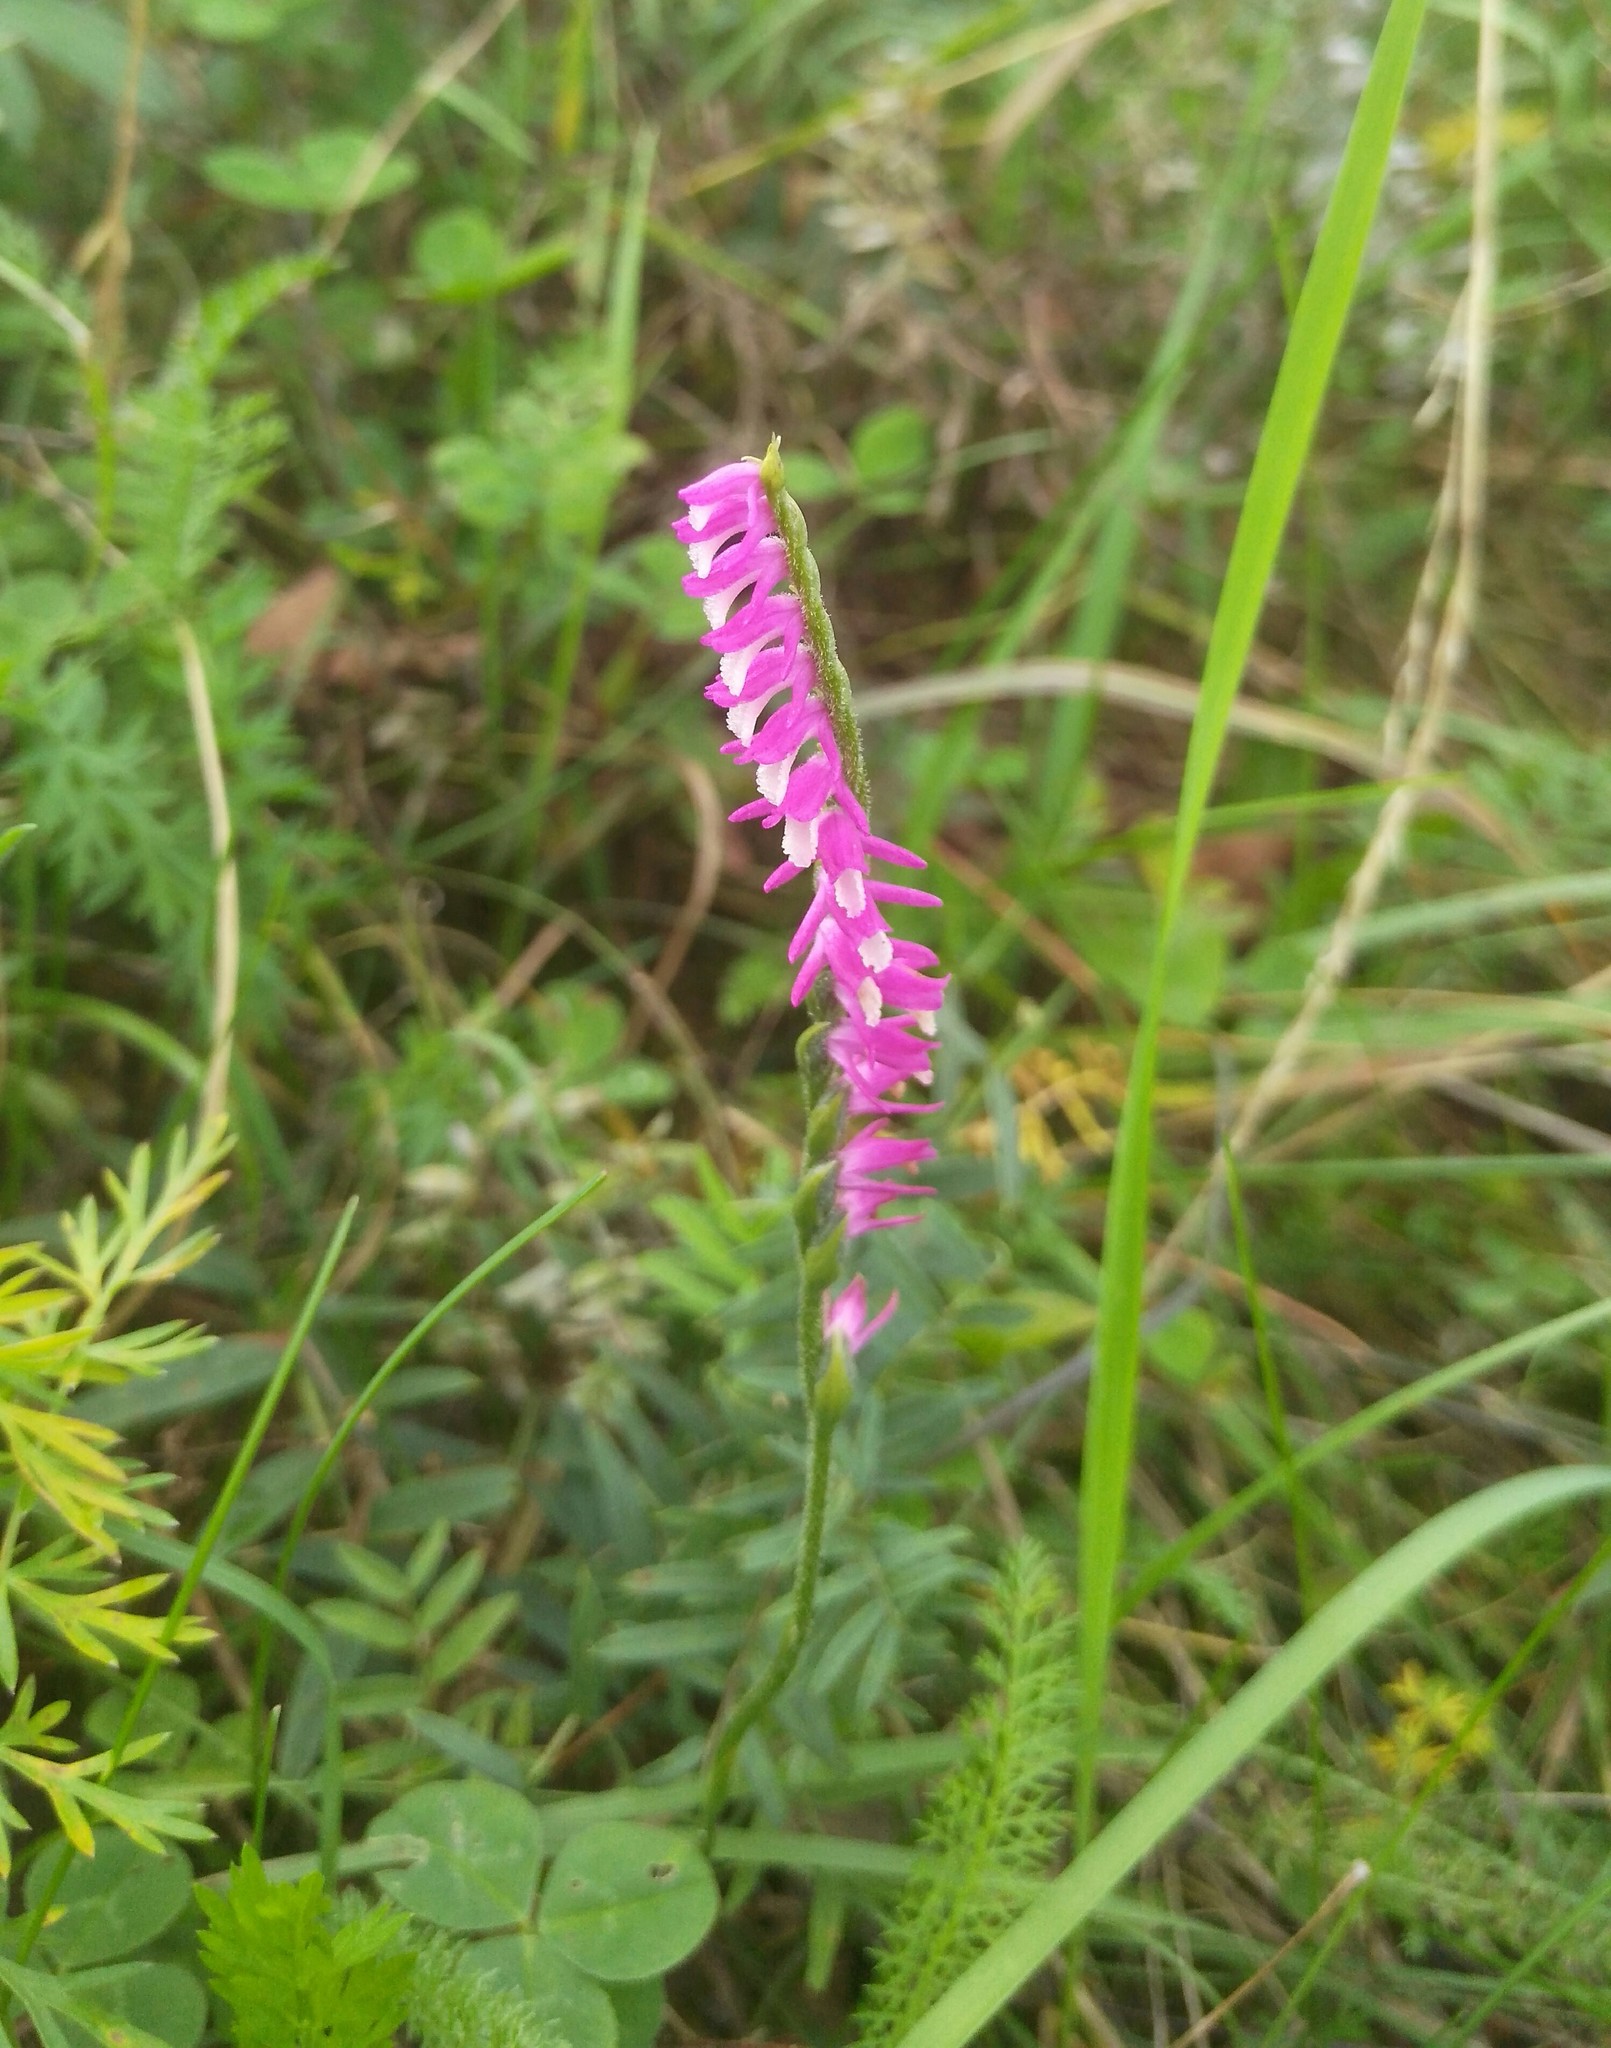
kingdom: Plantae
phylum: Tracheophyta
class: Liliopsida
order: Asparagales
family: Orchidaceae
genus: Spiranthes
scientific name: Spiranthes australis
